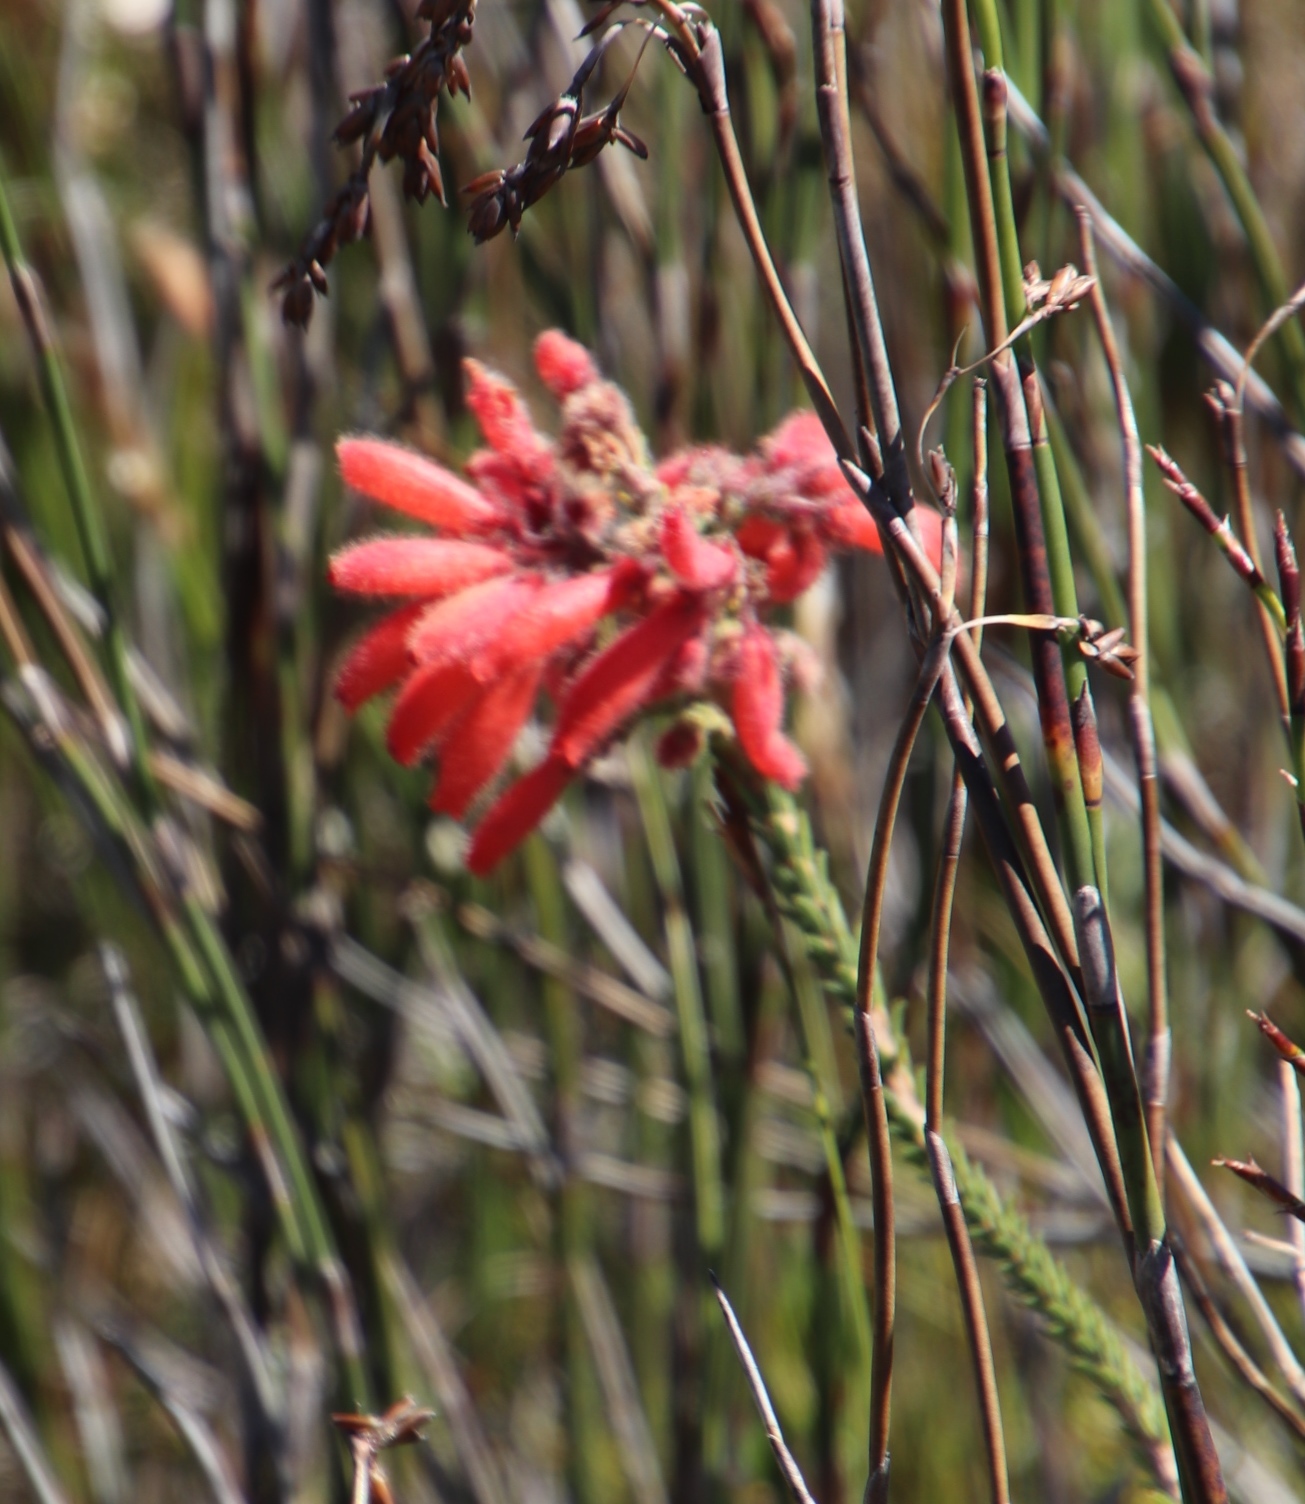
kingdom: Plantae
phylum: Tracheophyta
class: Magnoliopsida
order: Ericales
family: Ericaceae
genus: Erica
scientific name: Erica cerinthoides
